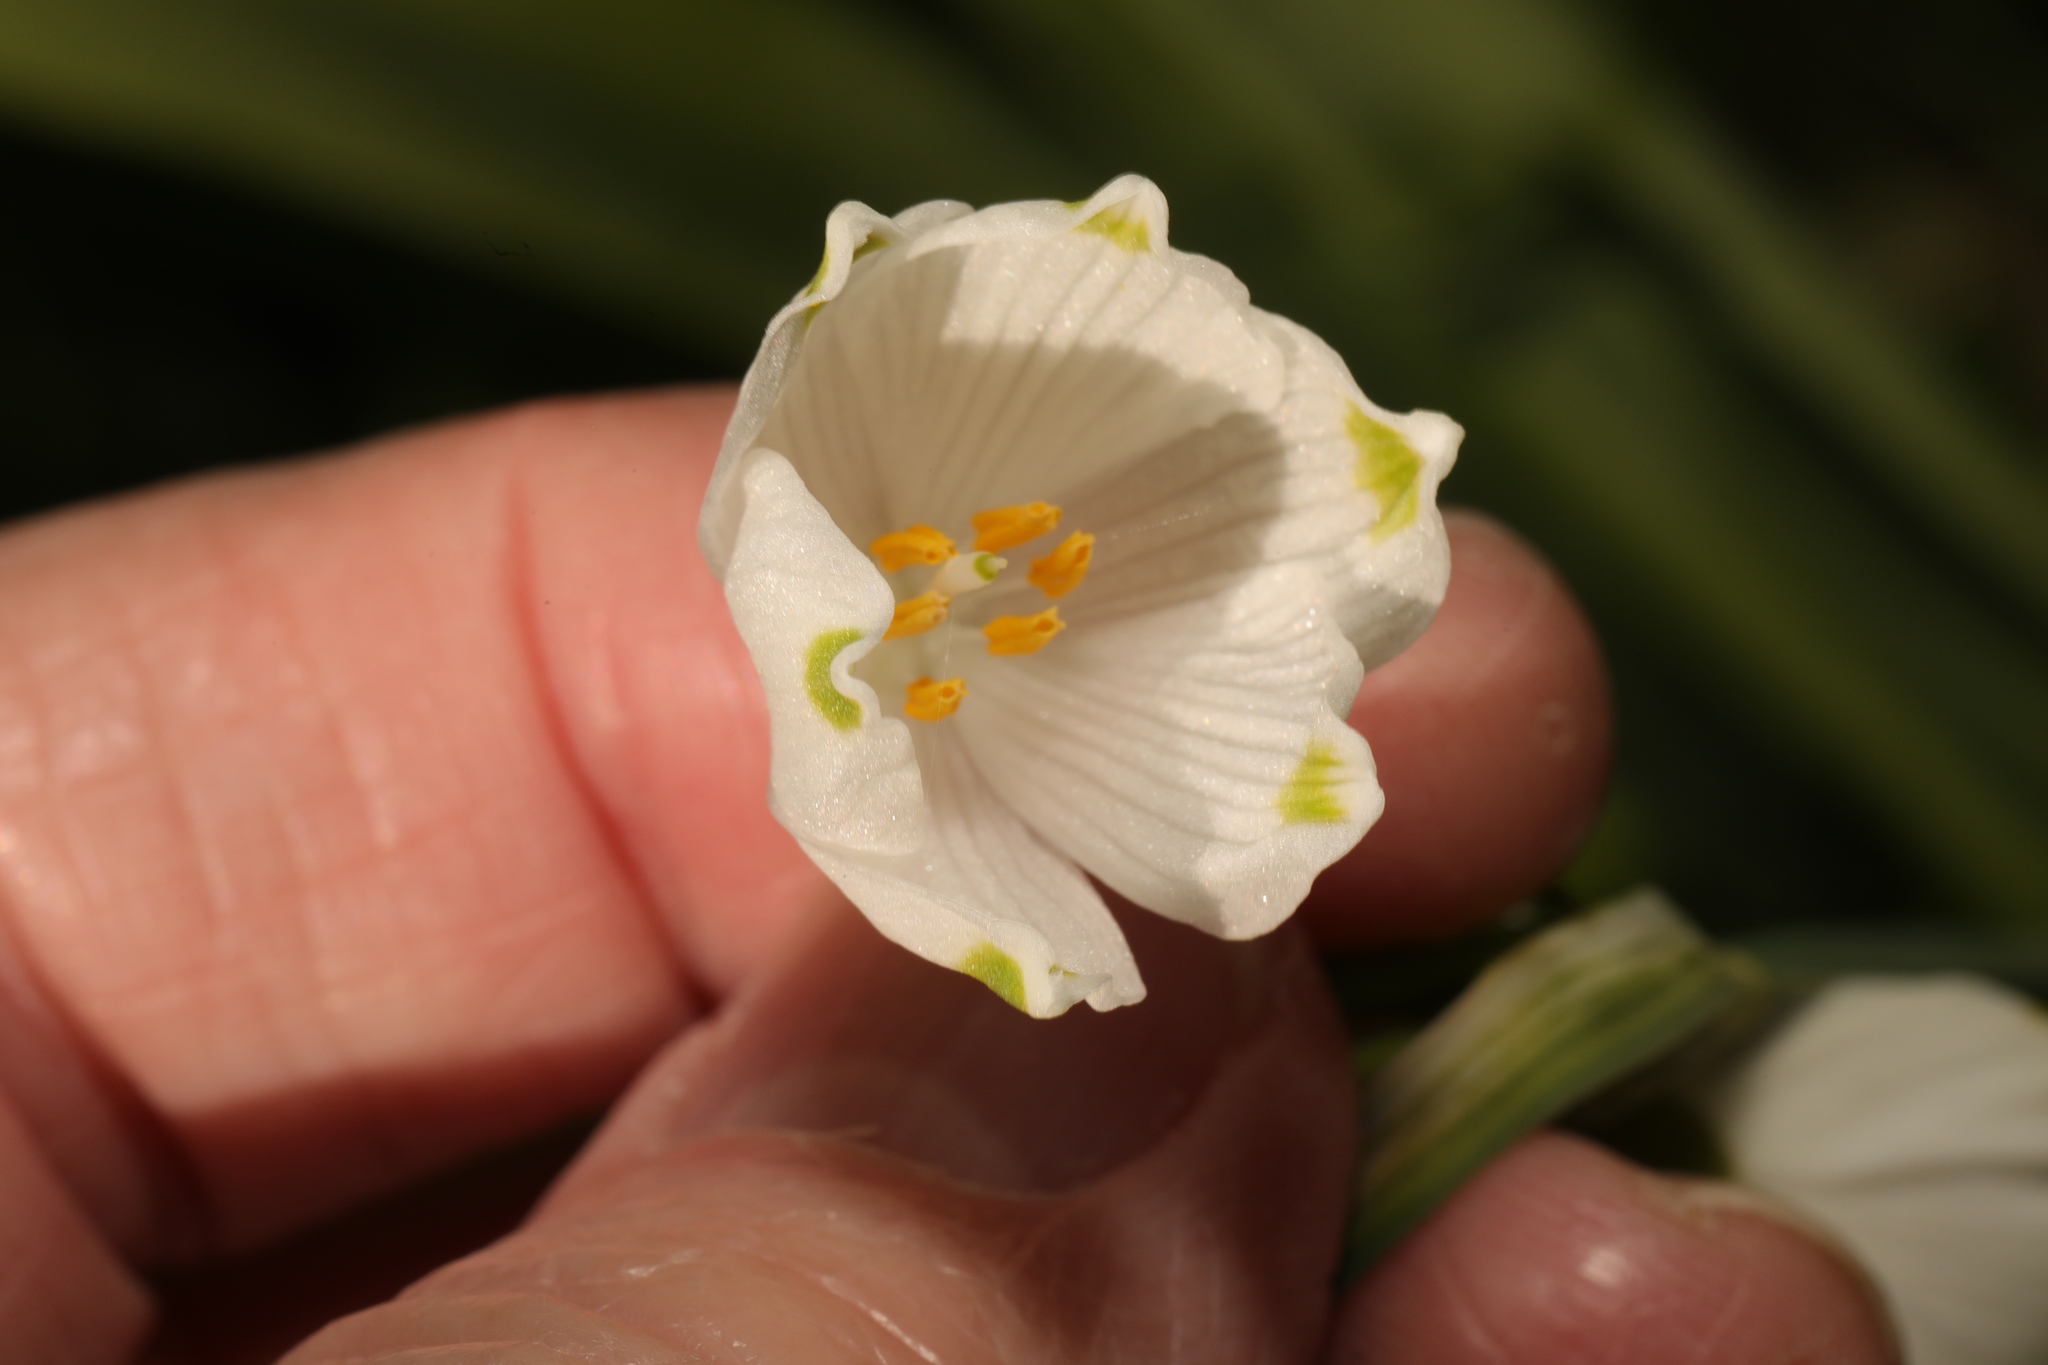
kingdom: Plantae
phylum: Tracheophyta
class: Liliopsida
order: Asparagales
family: Amaryllidaceae
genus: Leucojum
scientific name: Leucojum aestivum
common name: Summer snowflake
